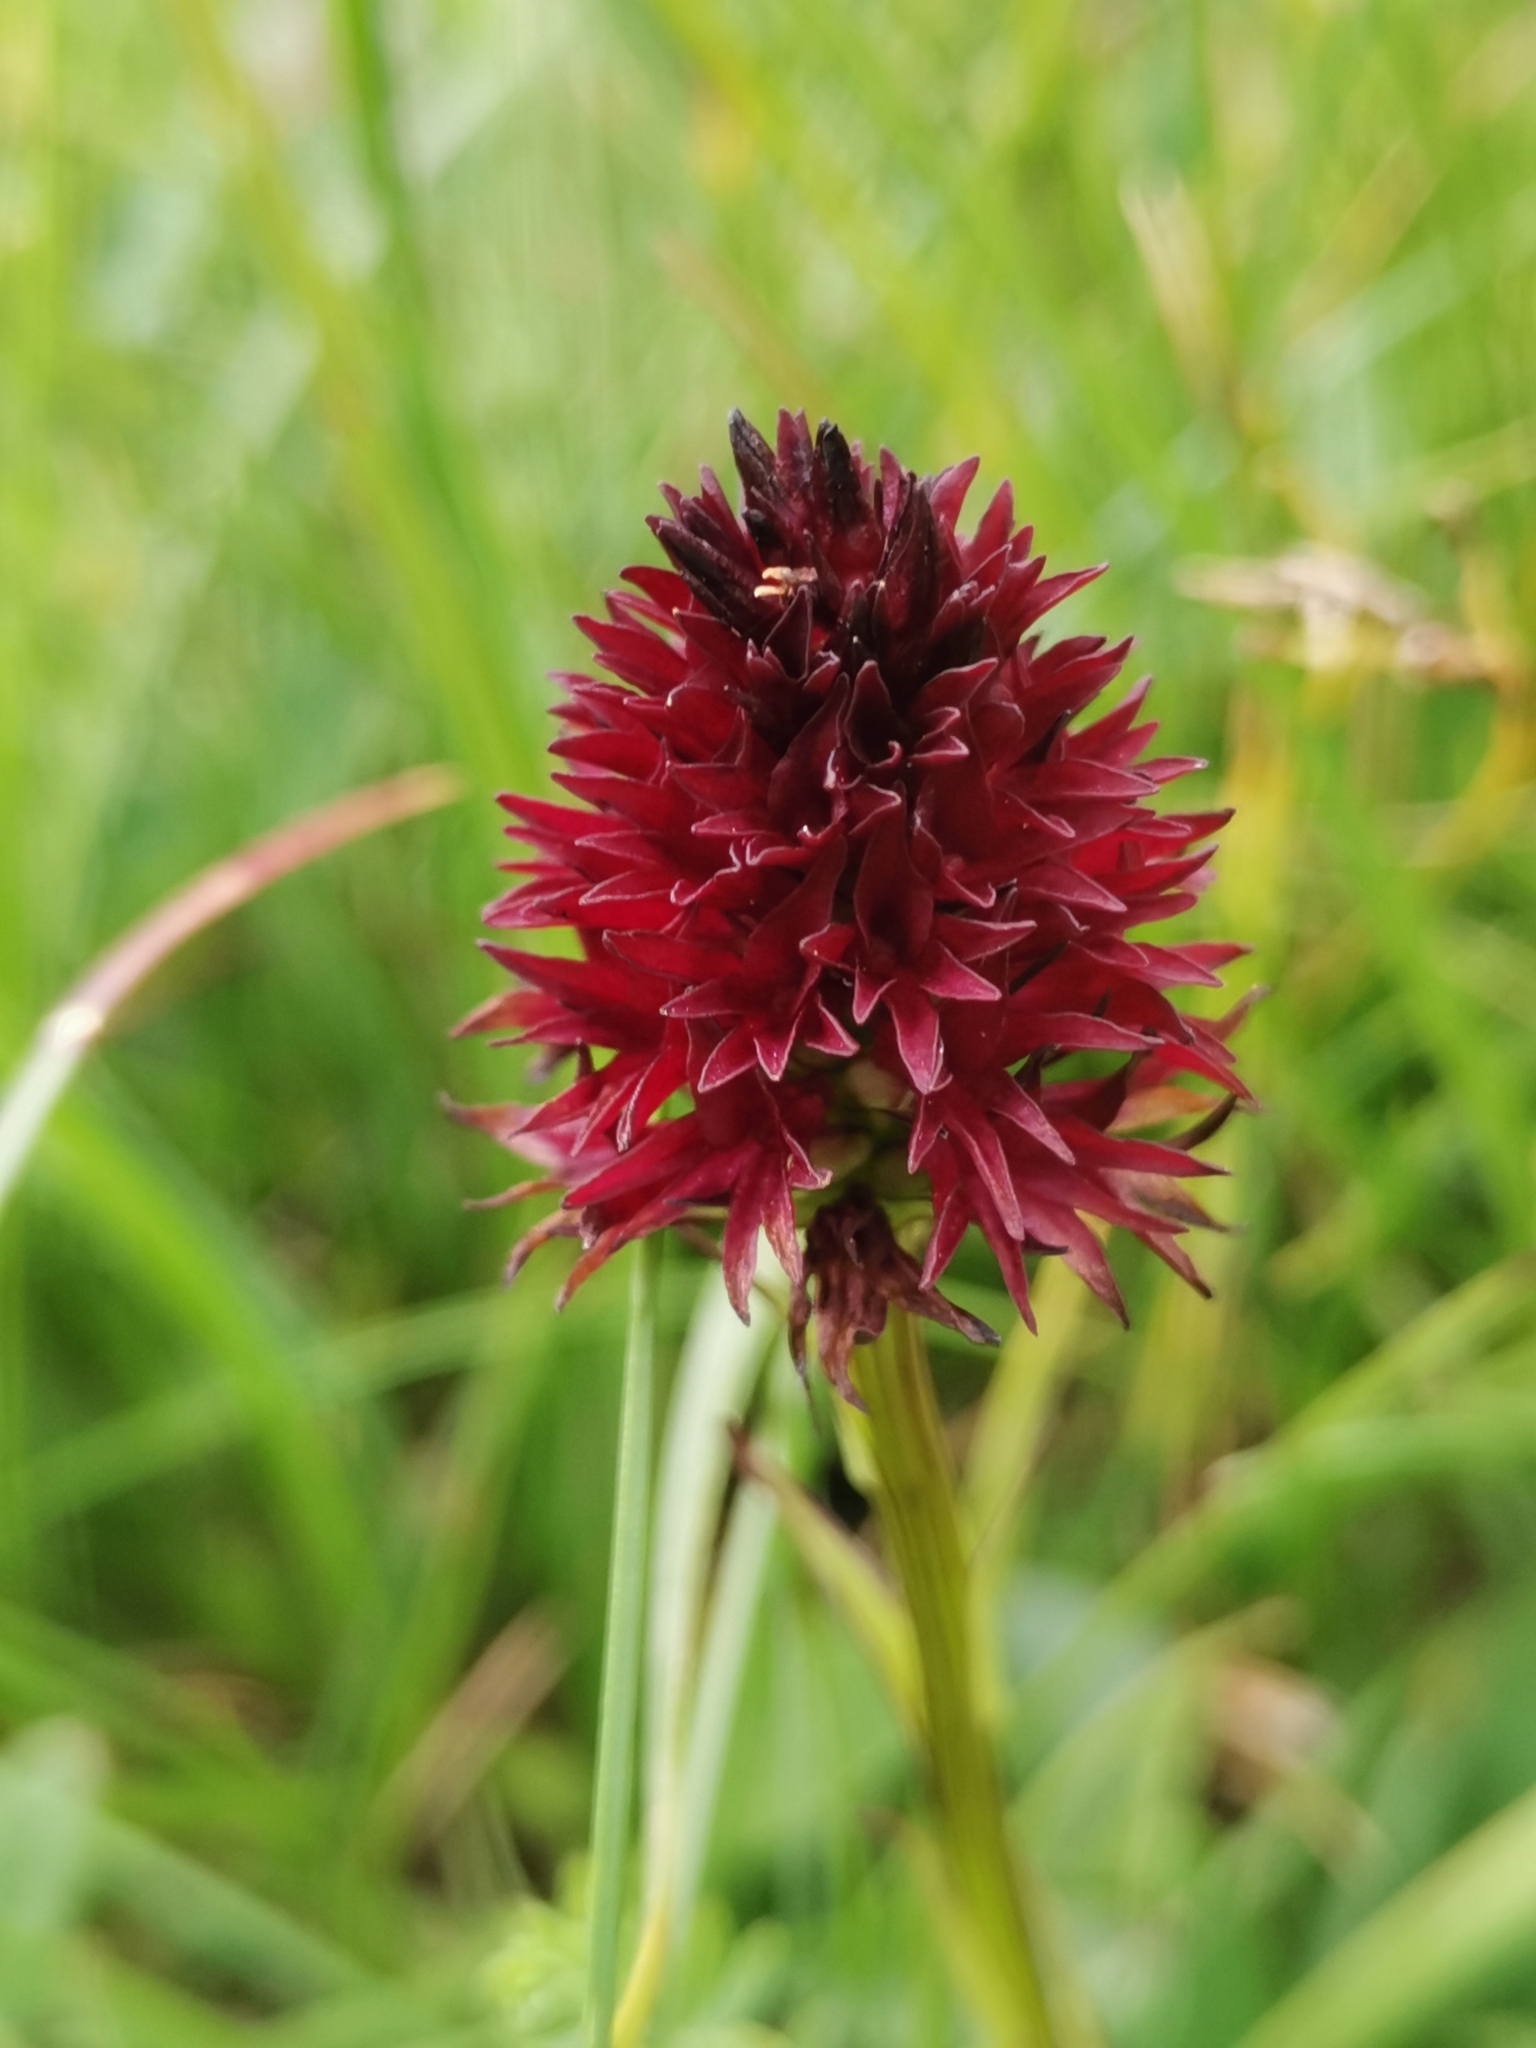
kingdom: Plantae
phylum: Tracheophyta
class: Liliopsida
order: Asparagales
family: Orchidaceae
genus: Gymnadenia
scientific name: Gymnadenia rhellicani
